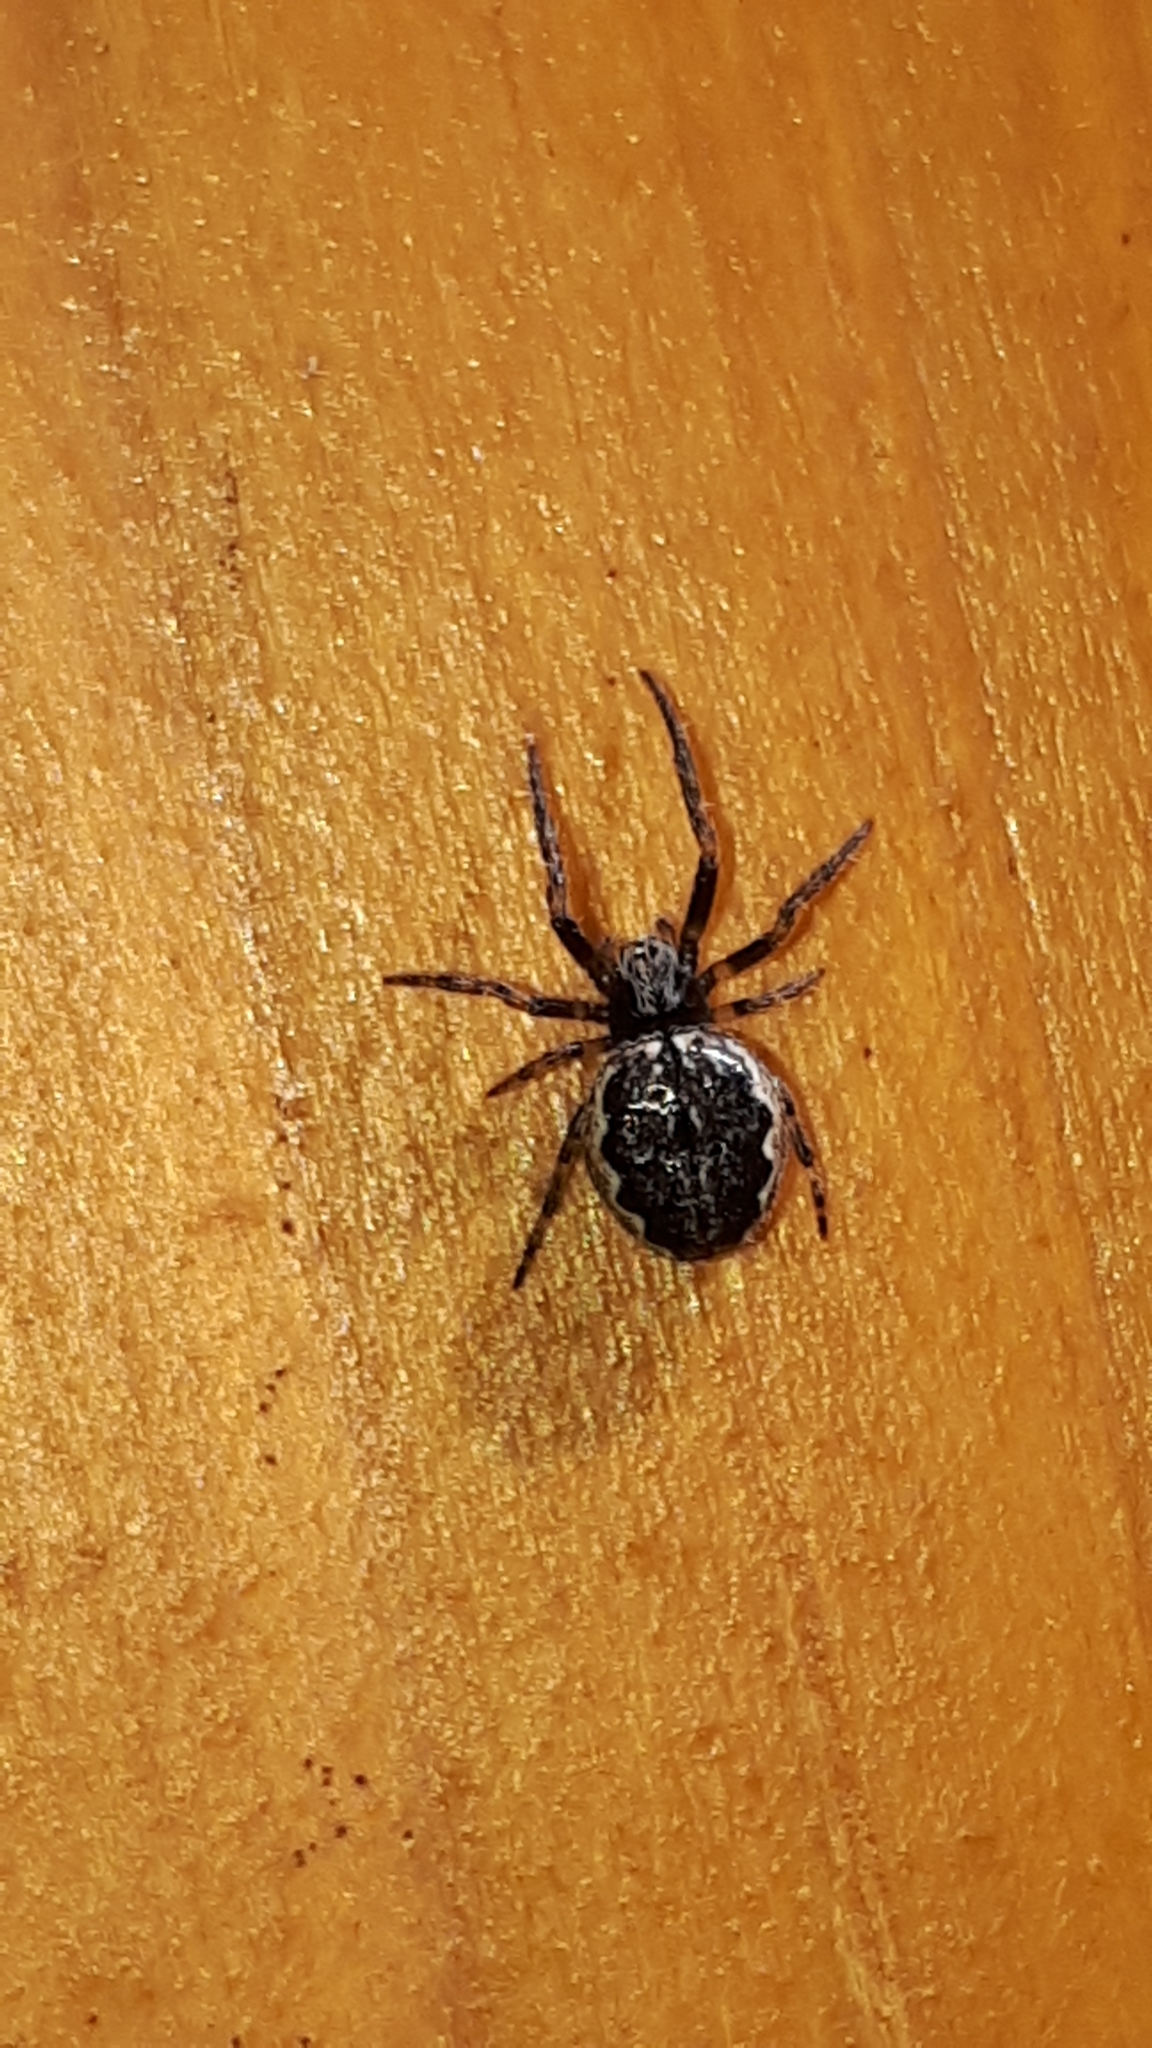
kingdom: Animalia
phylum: Arthropoda
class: Arachnida
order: Araneae
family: Araneidae
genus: Nuctenea
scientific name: Nuctenea silvicultrix
